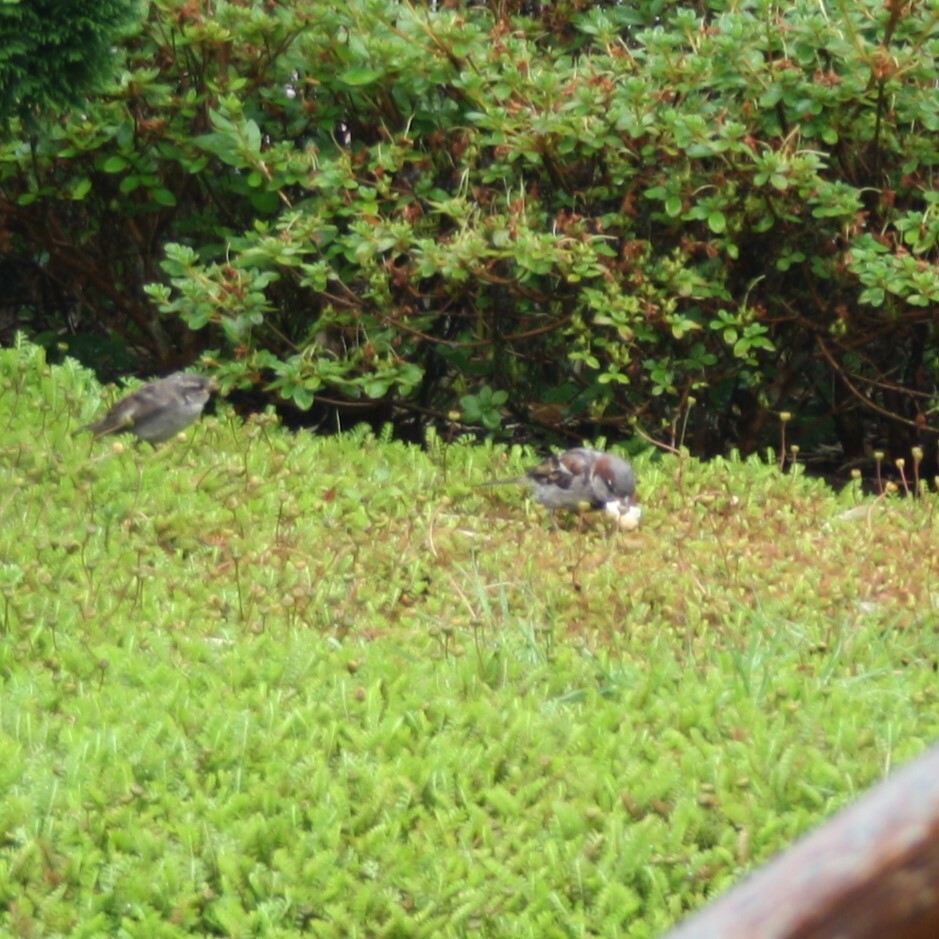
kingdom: Animalia
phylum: Chordata
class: Aves
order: Passeriformes
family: Passeridae
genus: Passer
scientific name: Passer domesticus
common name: House sparrow
